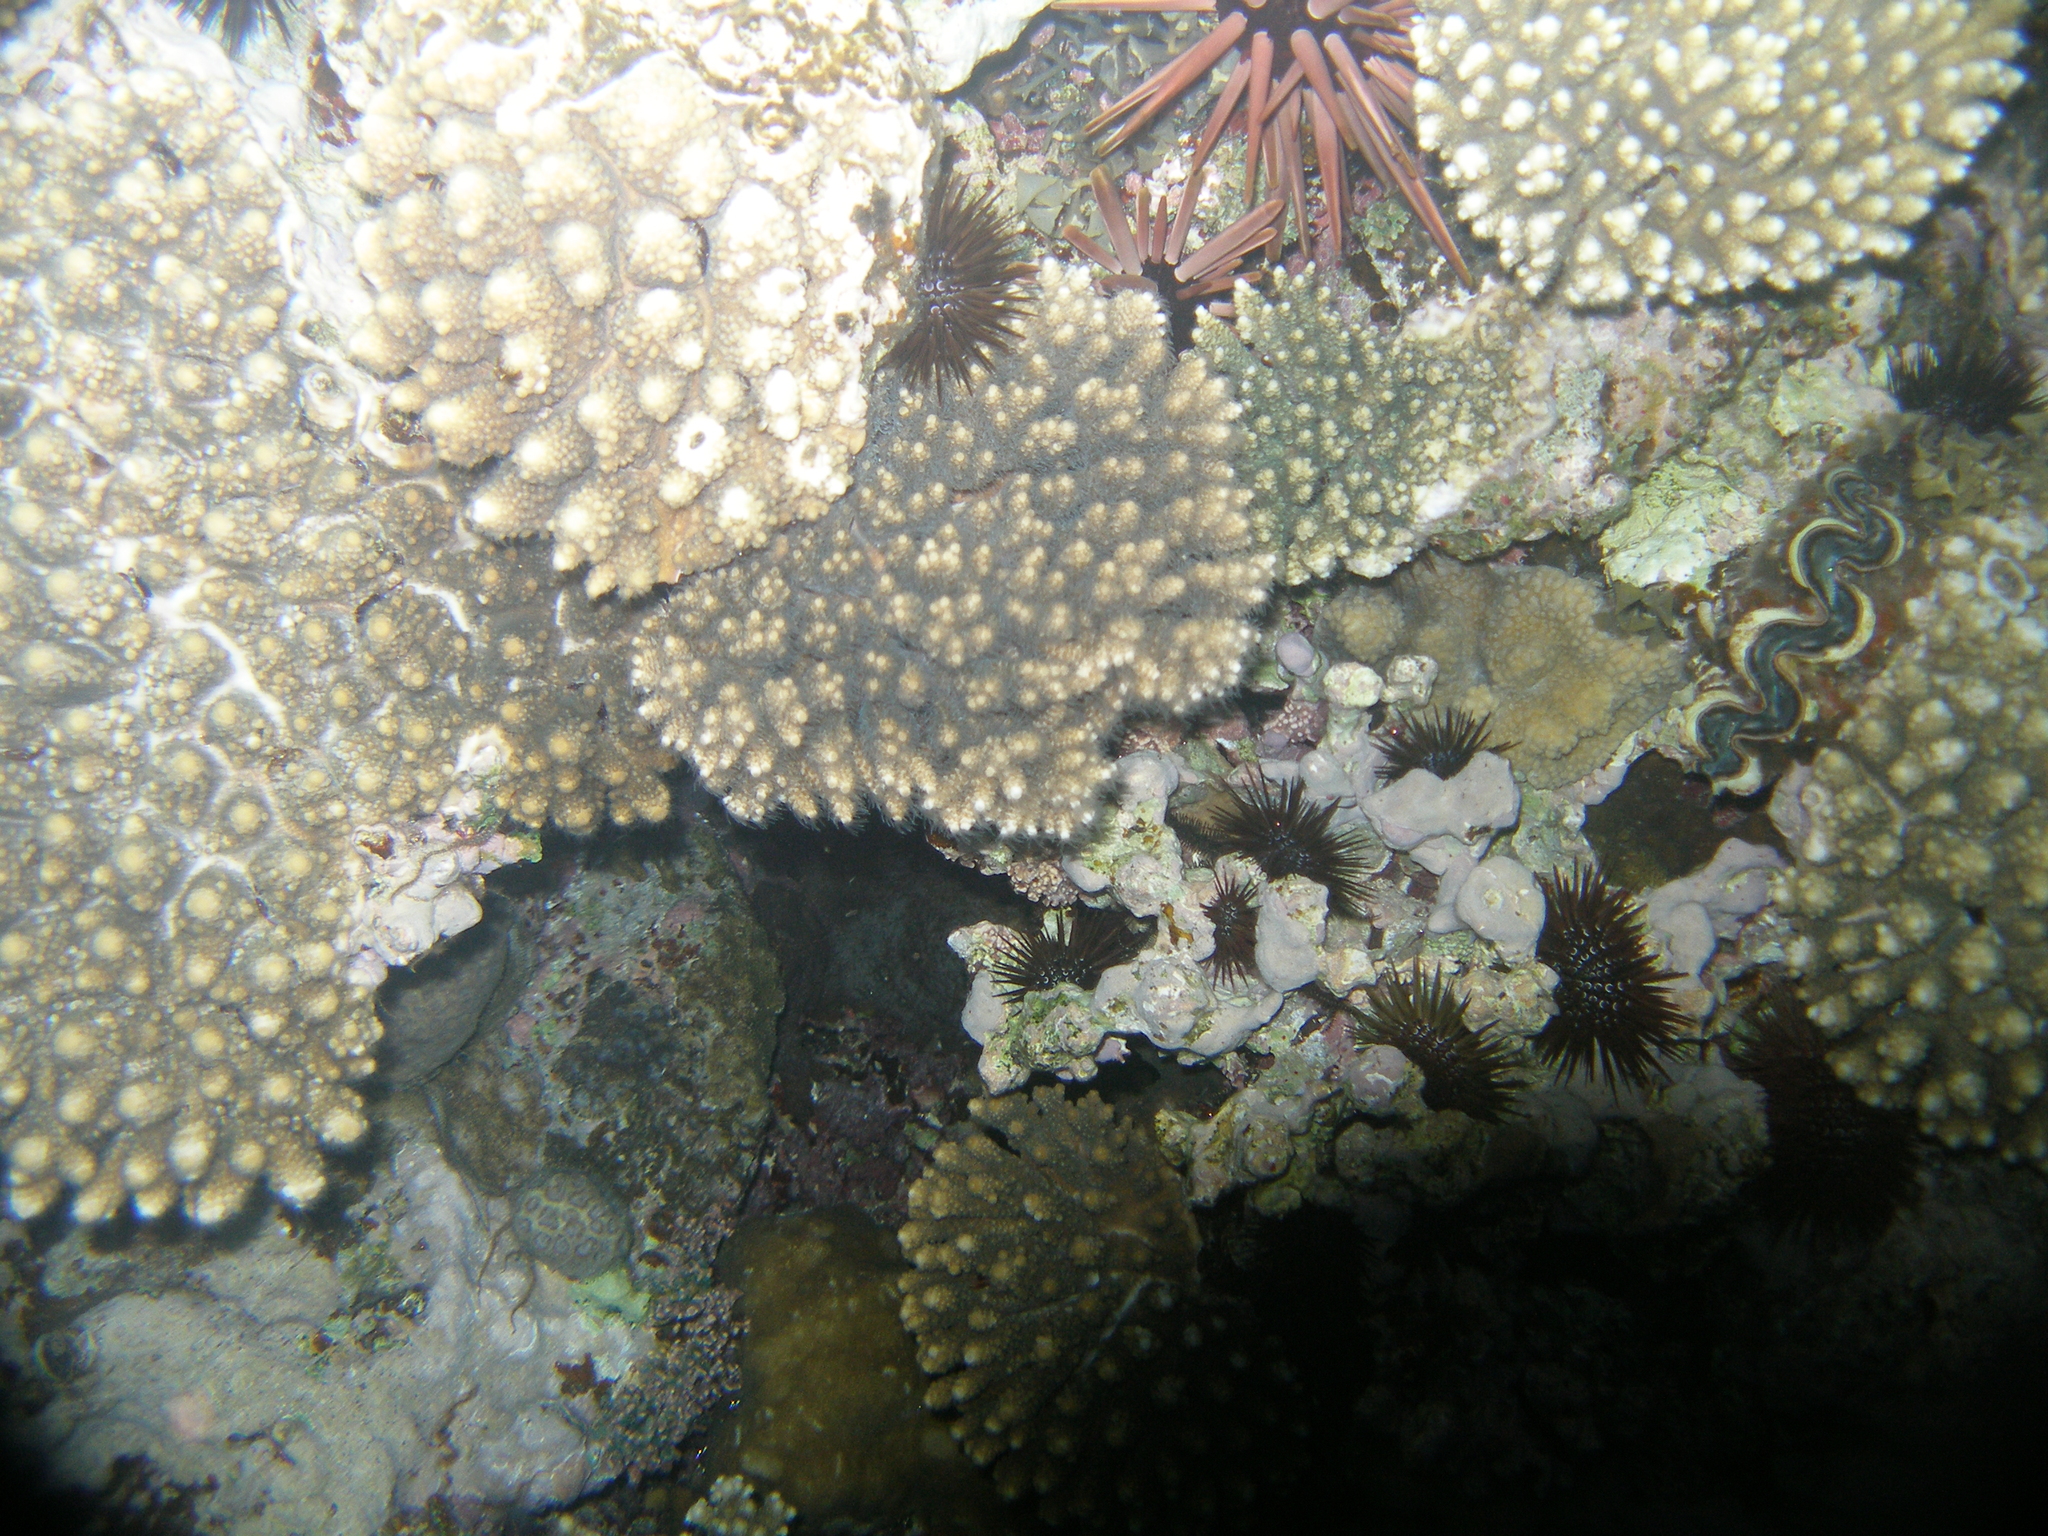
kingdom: Animalia
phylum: Cnidaria
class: Anthozoa
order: Scleractinia
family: Acroporidae
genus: Acropora
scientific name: Acropora gemmifera
